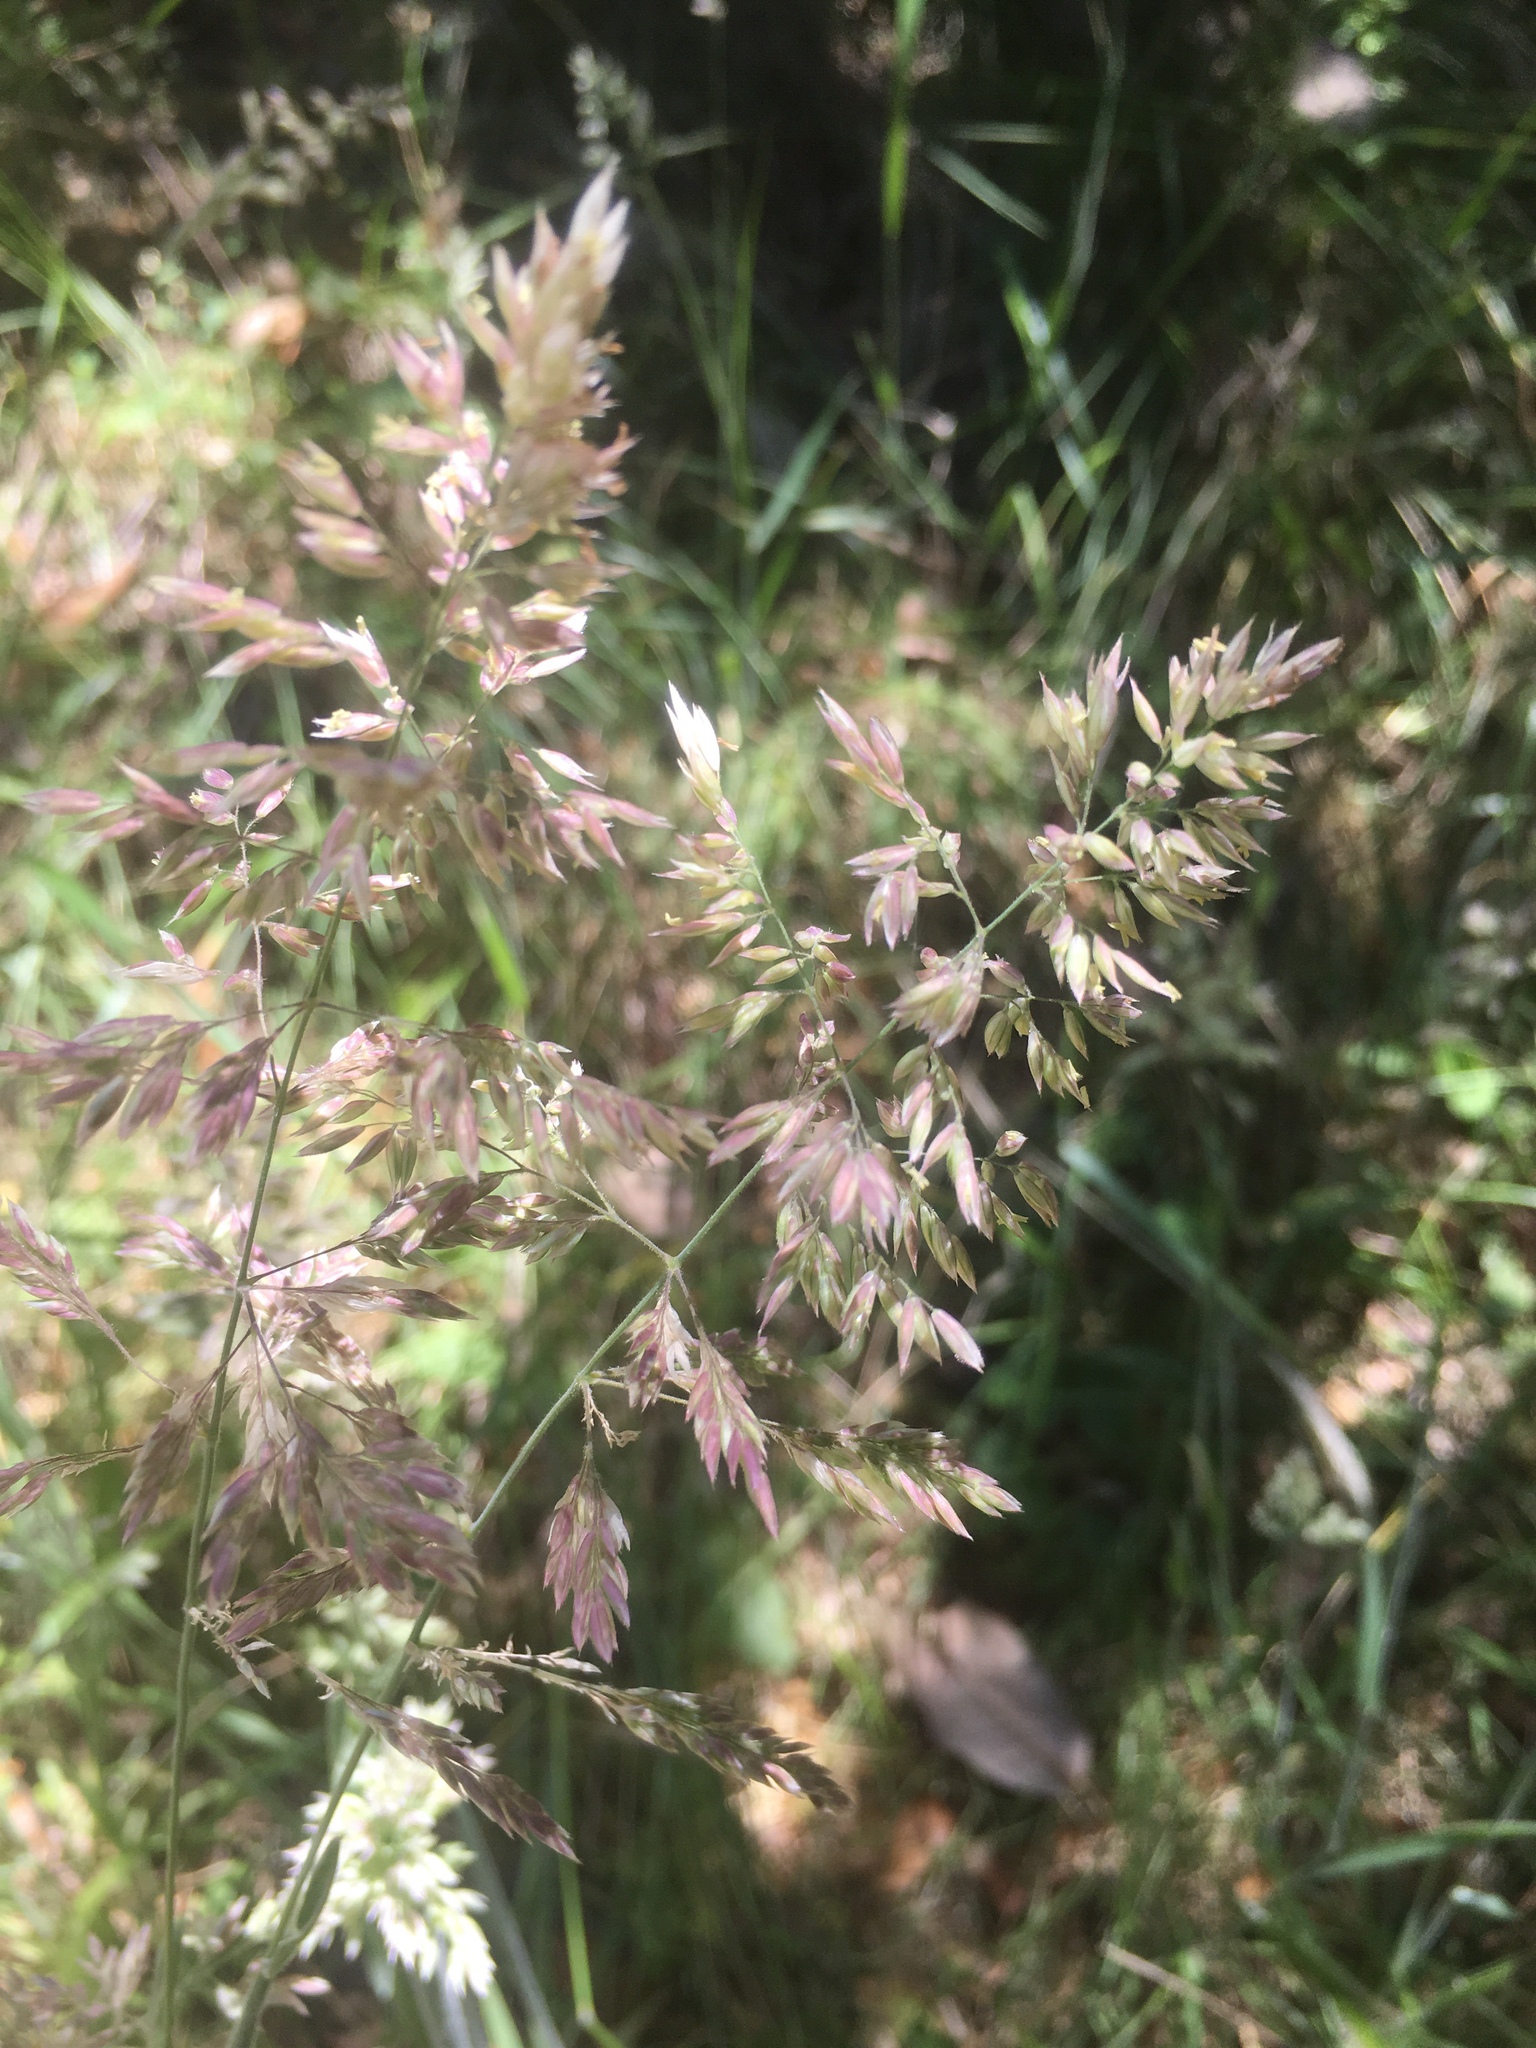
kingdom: Plantae
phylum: Tracheophyta
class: Liliopsida
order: Poales
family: Poaceae
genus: Holcus
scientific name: Holcus lanatus
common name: Yorkshire-fog
